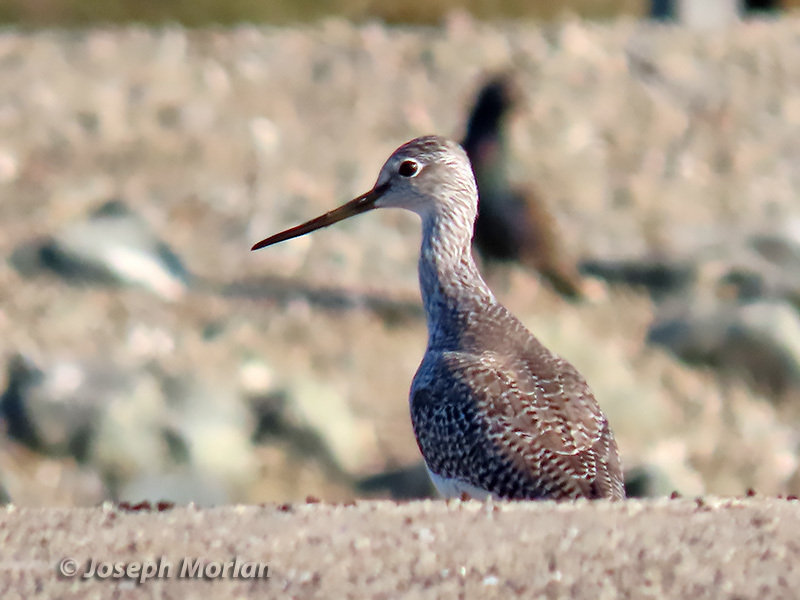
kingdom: Animalia
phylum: Chordata
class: Aves
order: Charadriiformes
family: Scolopacidae
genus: Tringa
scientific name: Tringa melanoleuca
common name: Greater yellowlegs
